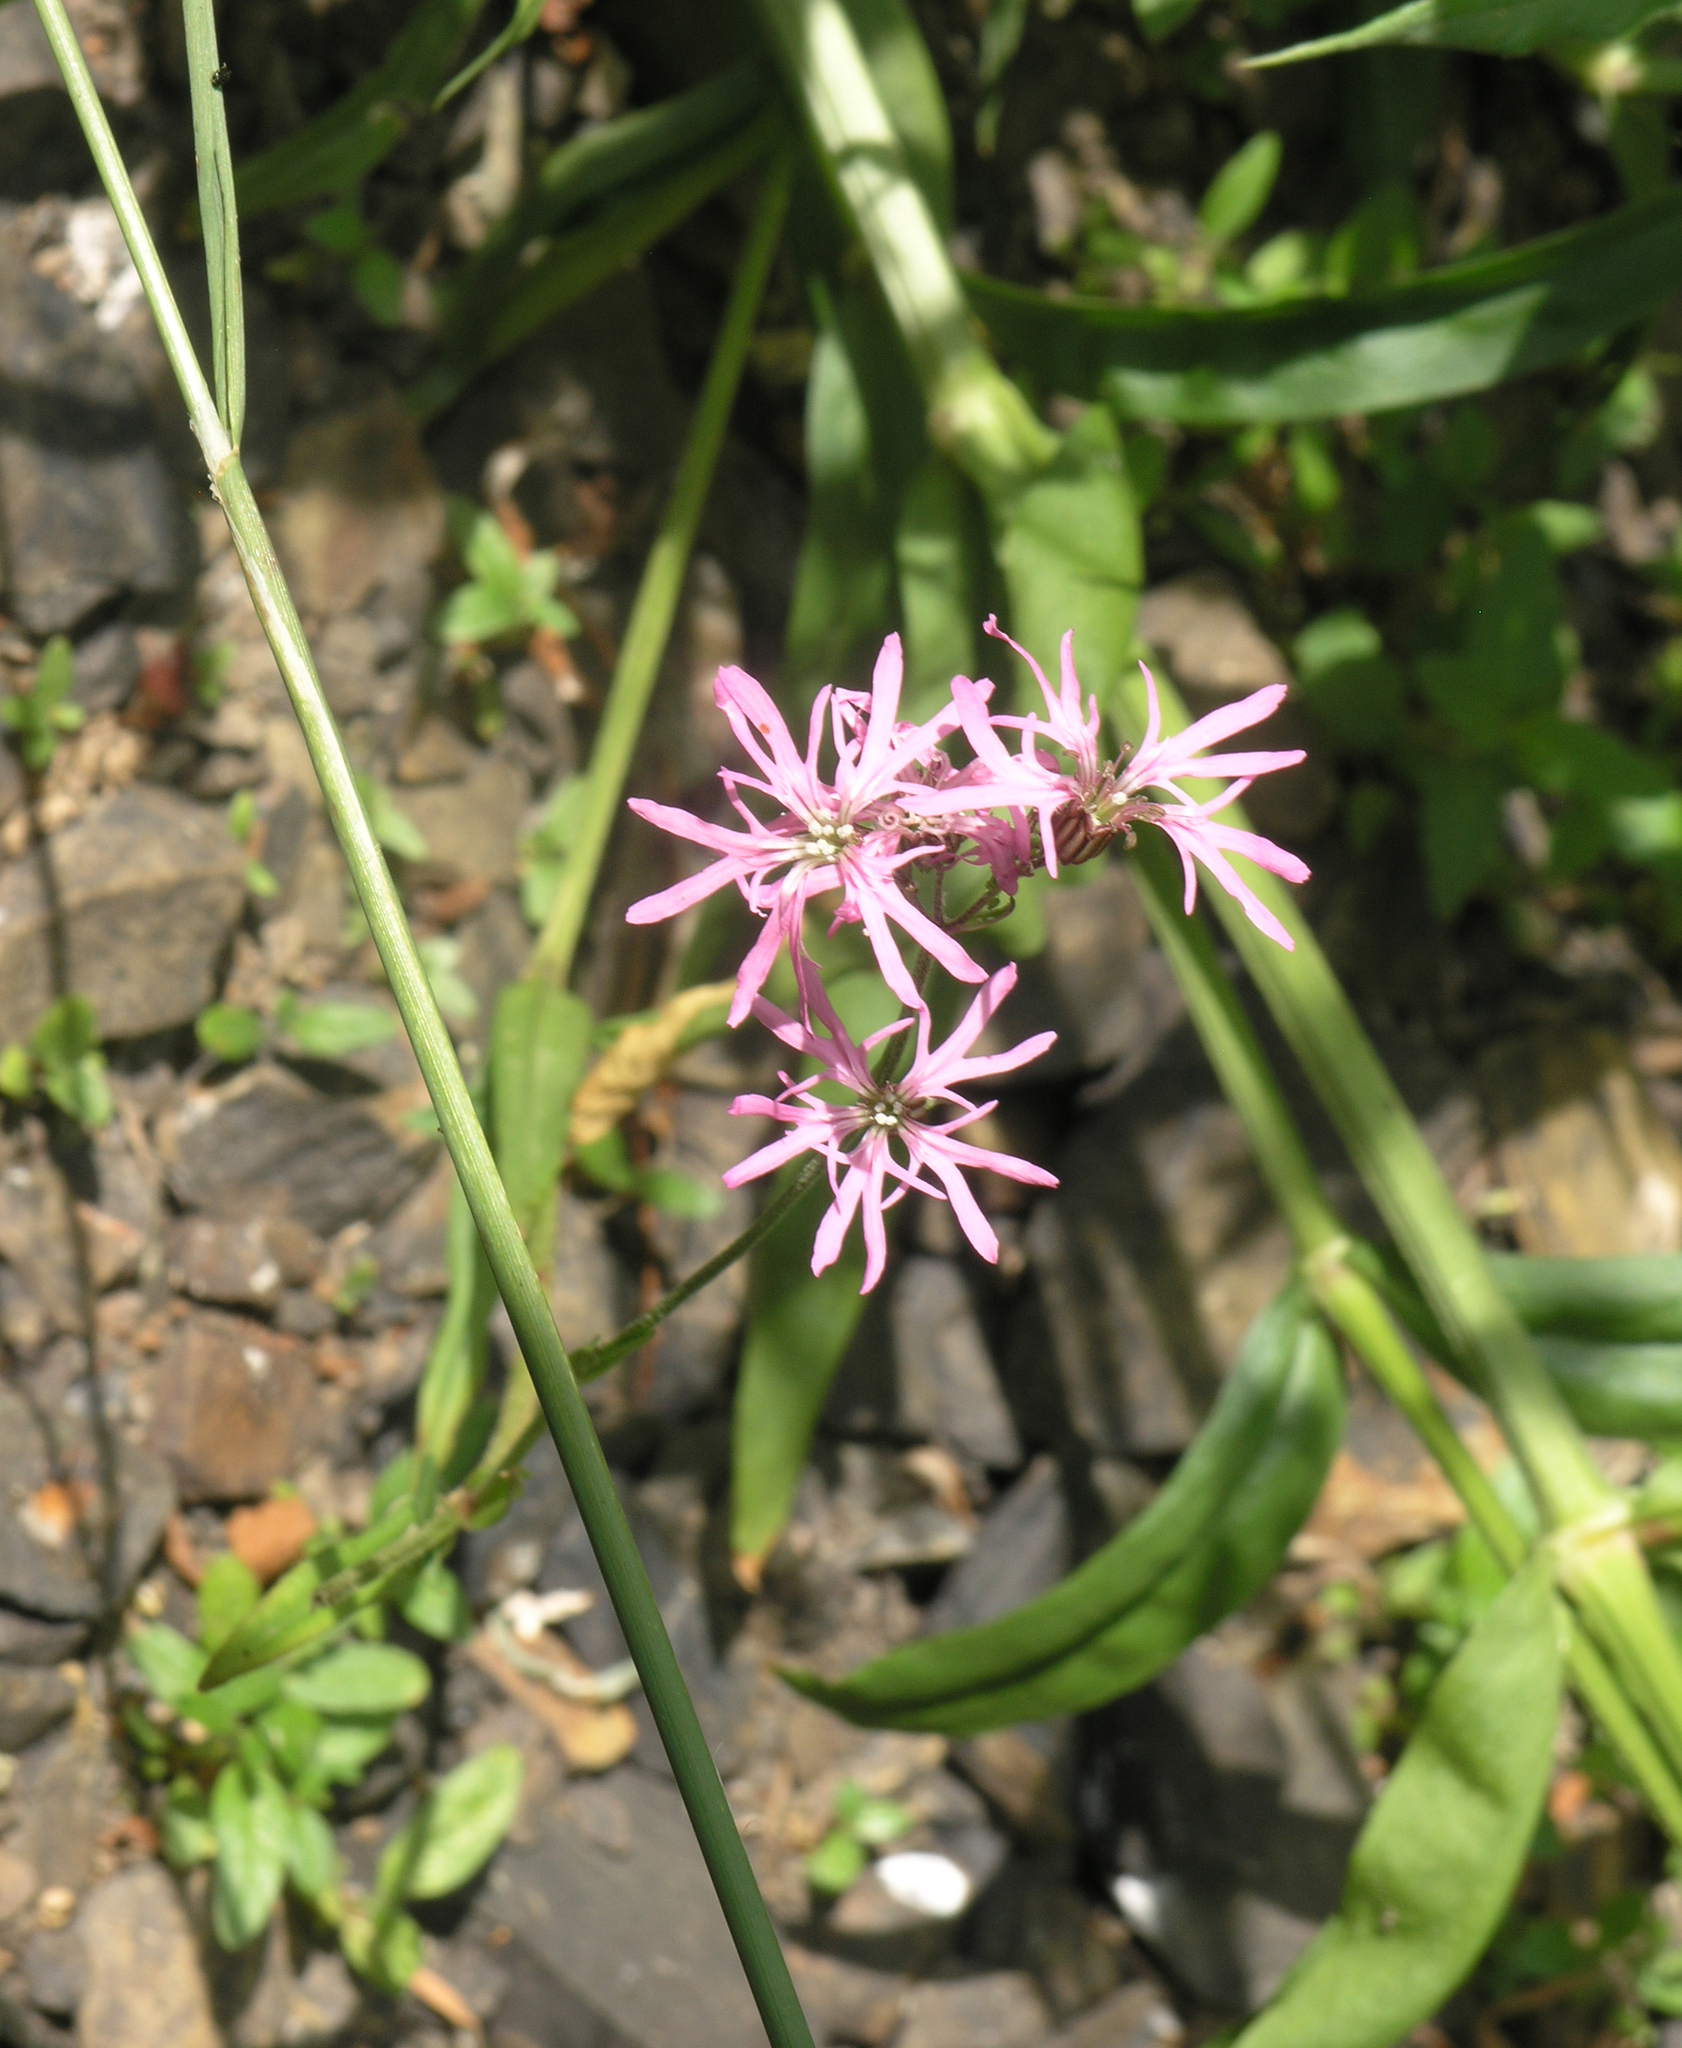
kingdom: Plantae
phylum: Tracheophyta
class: Magnoliopsida
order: Caryophyllales
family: Caryophyllaceae
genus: Silene
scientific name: Silene flos-cuculi
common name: Ragged-robin
